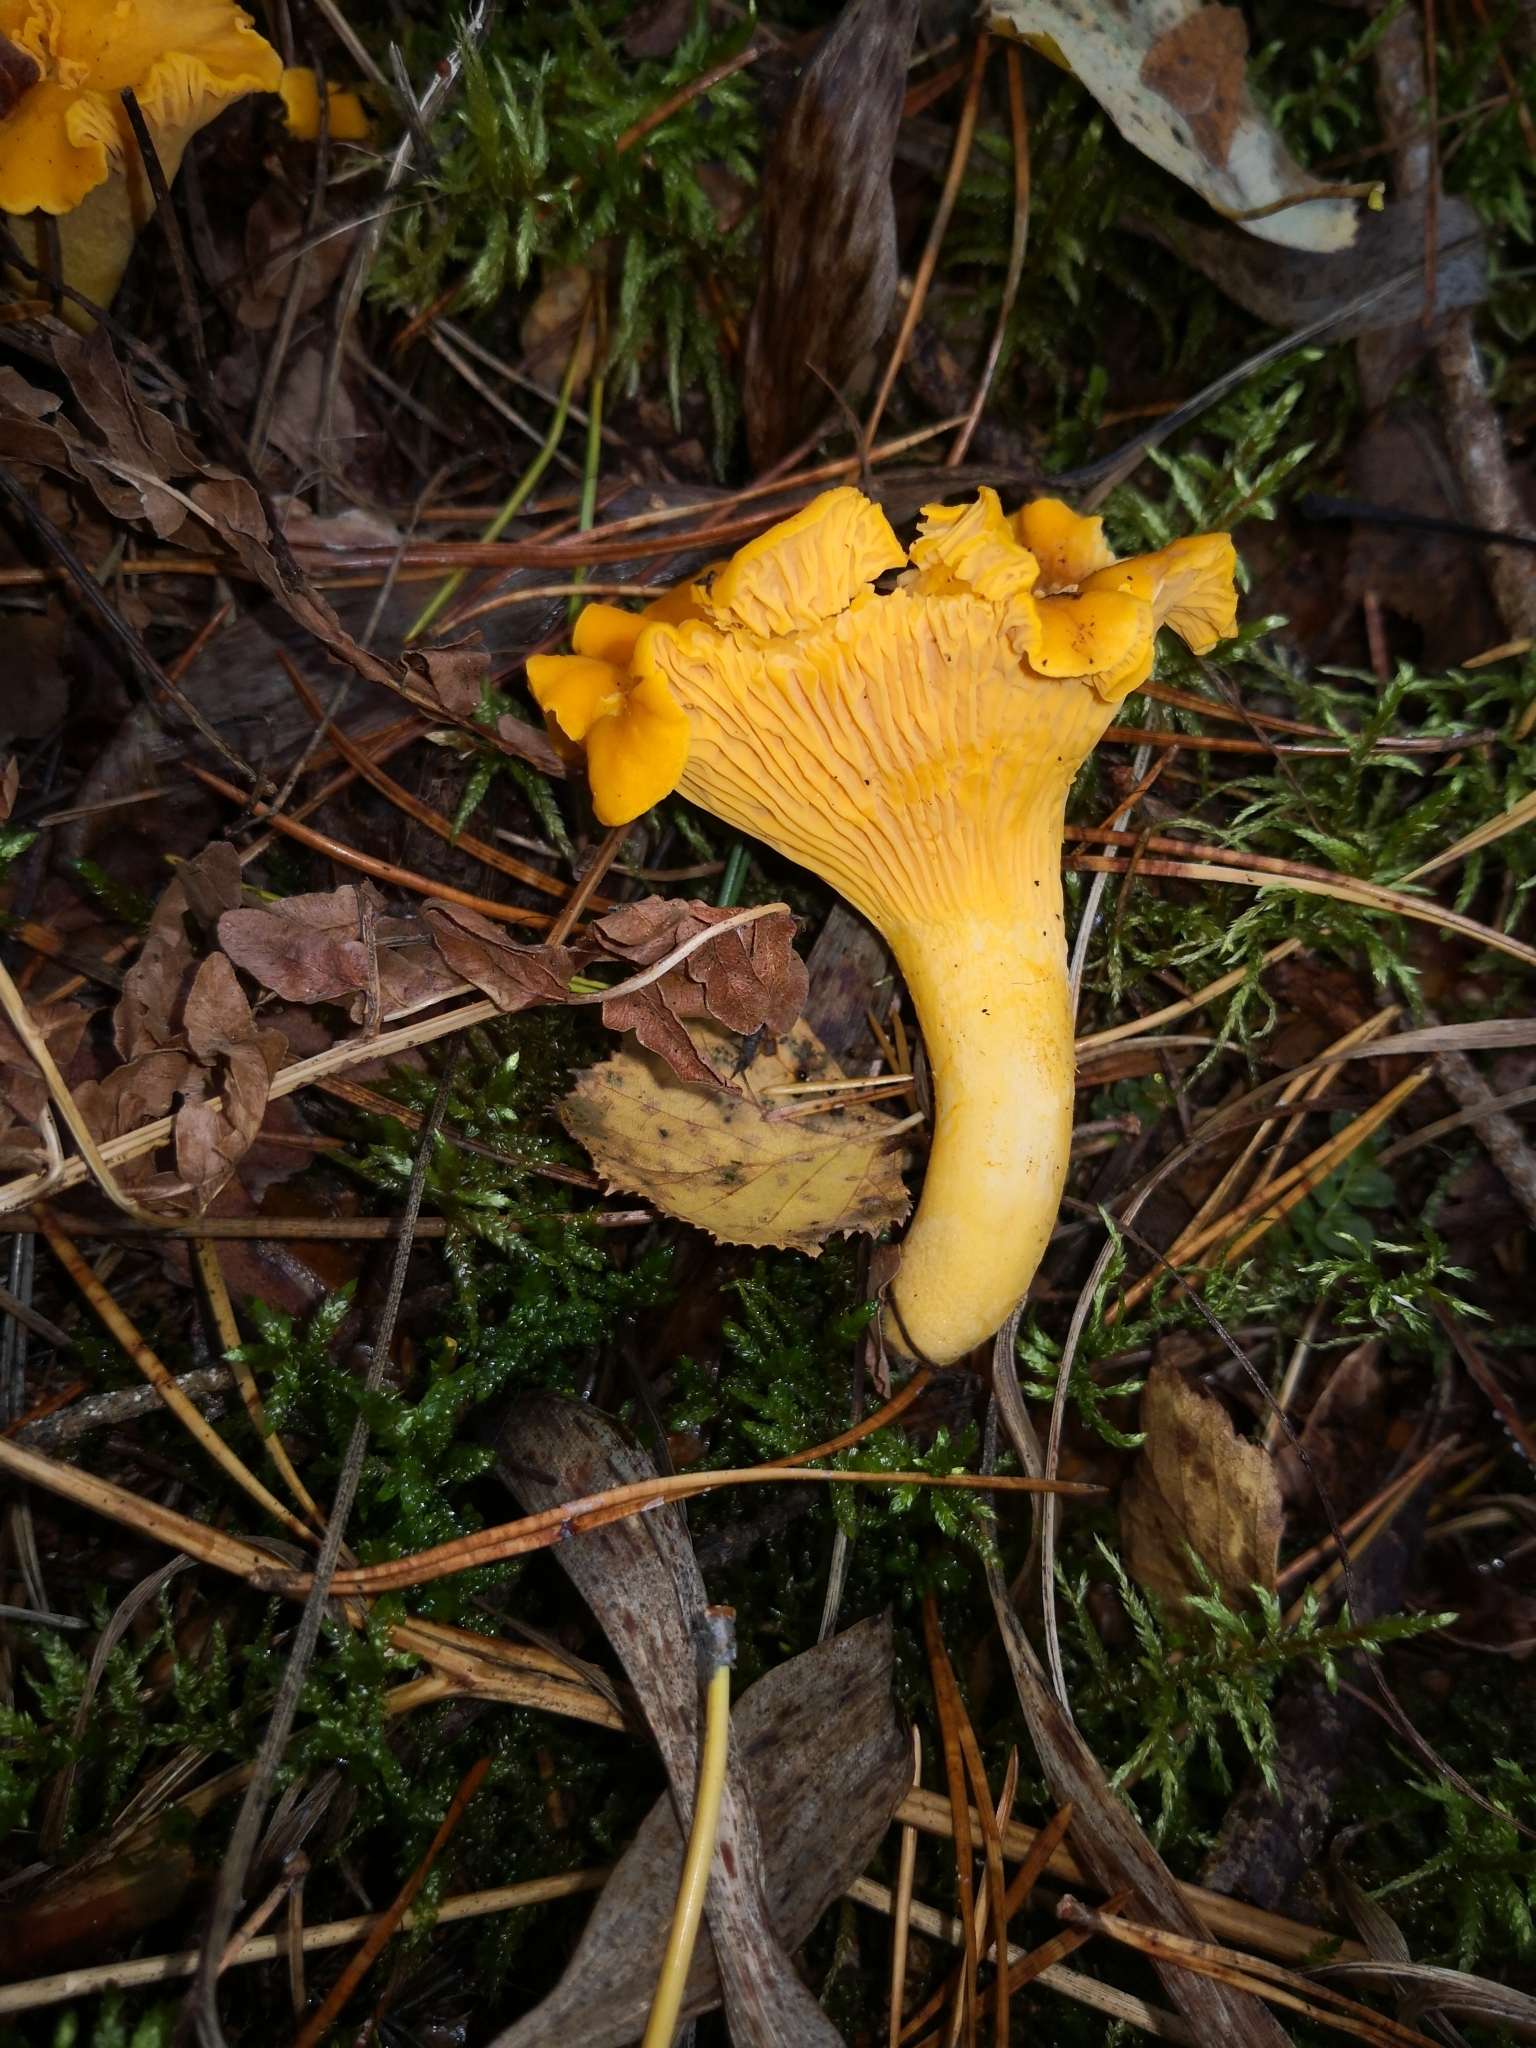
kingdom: Fungi
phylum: Basidiomycota
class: Agaricomycetes
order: Cantharellales
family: Hydnaceae
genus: Cantharellus
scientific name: Cantharellus cibarius
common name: Chanterelle
